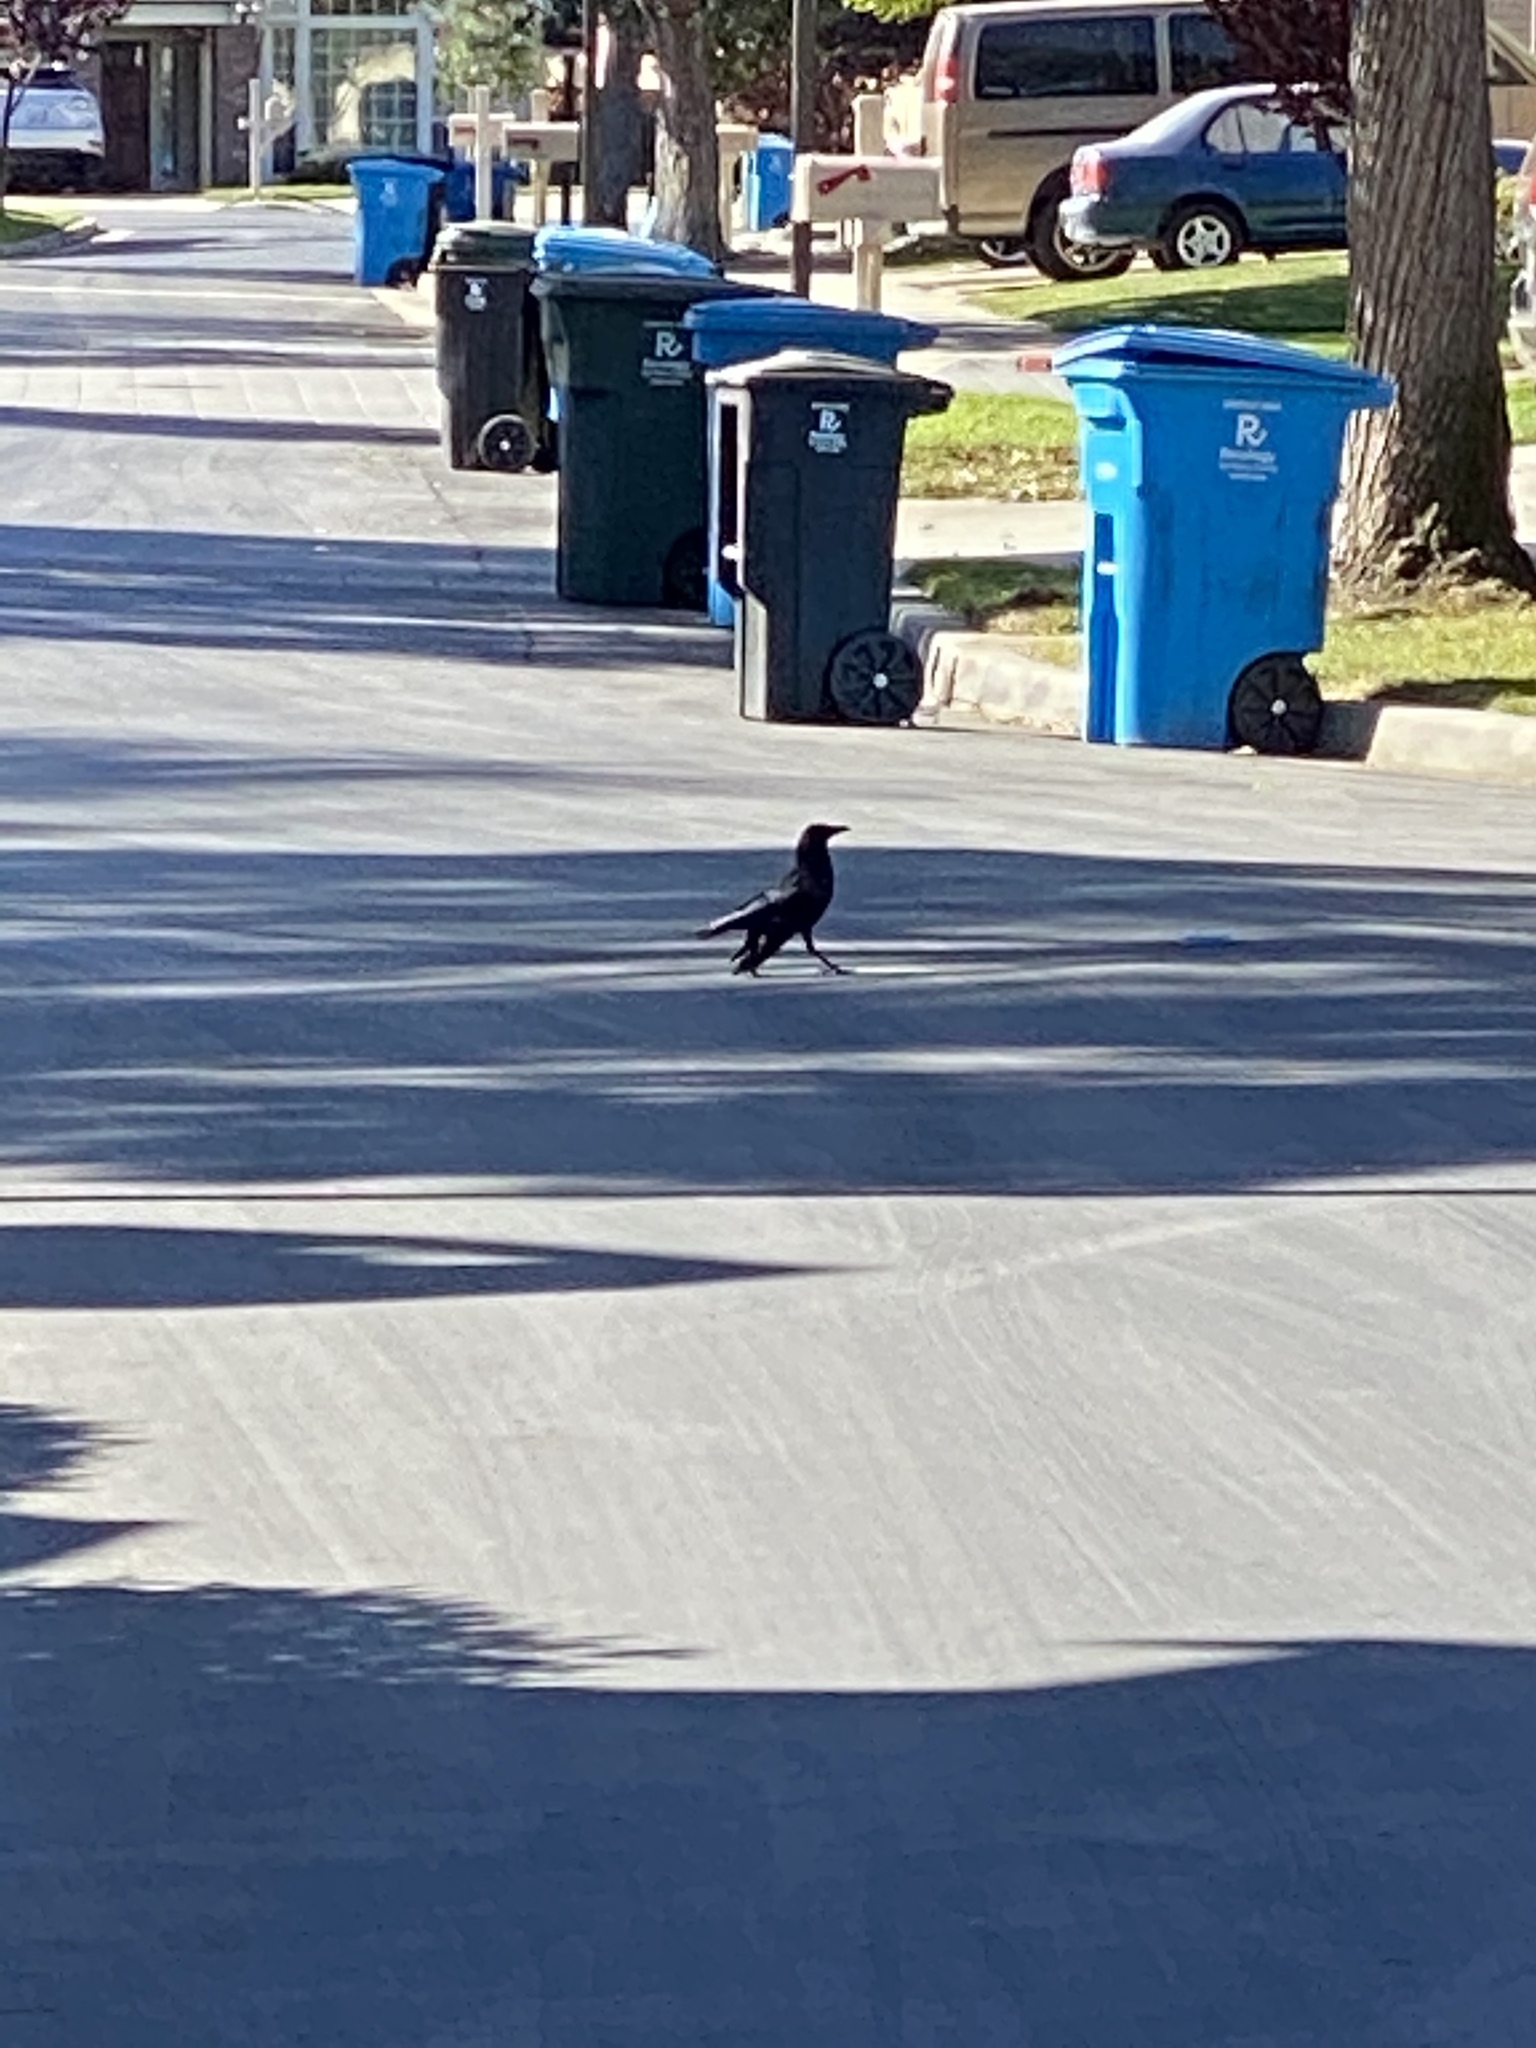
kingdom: Animalia
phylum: Chordata
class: Aves
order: Passeriformes
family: Corvidae
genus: Corvus
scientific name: Corvus brachyrhynchos
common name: American crow
